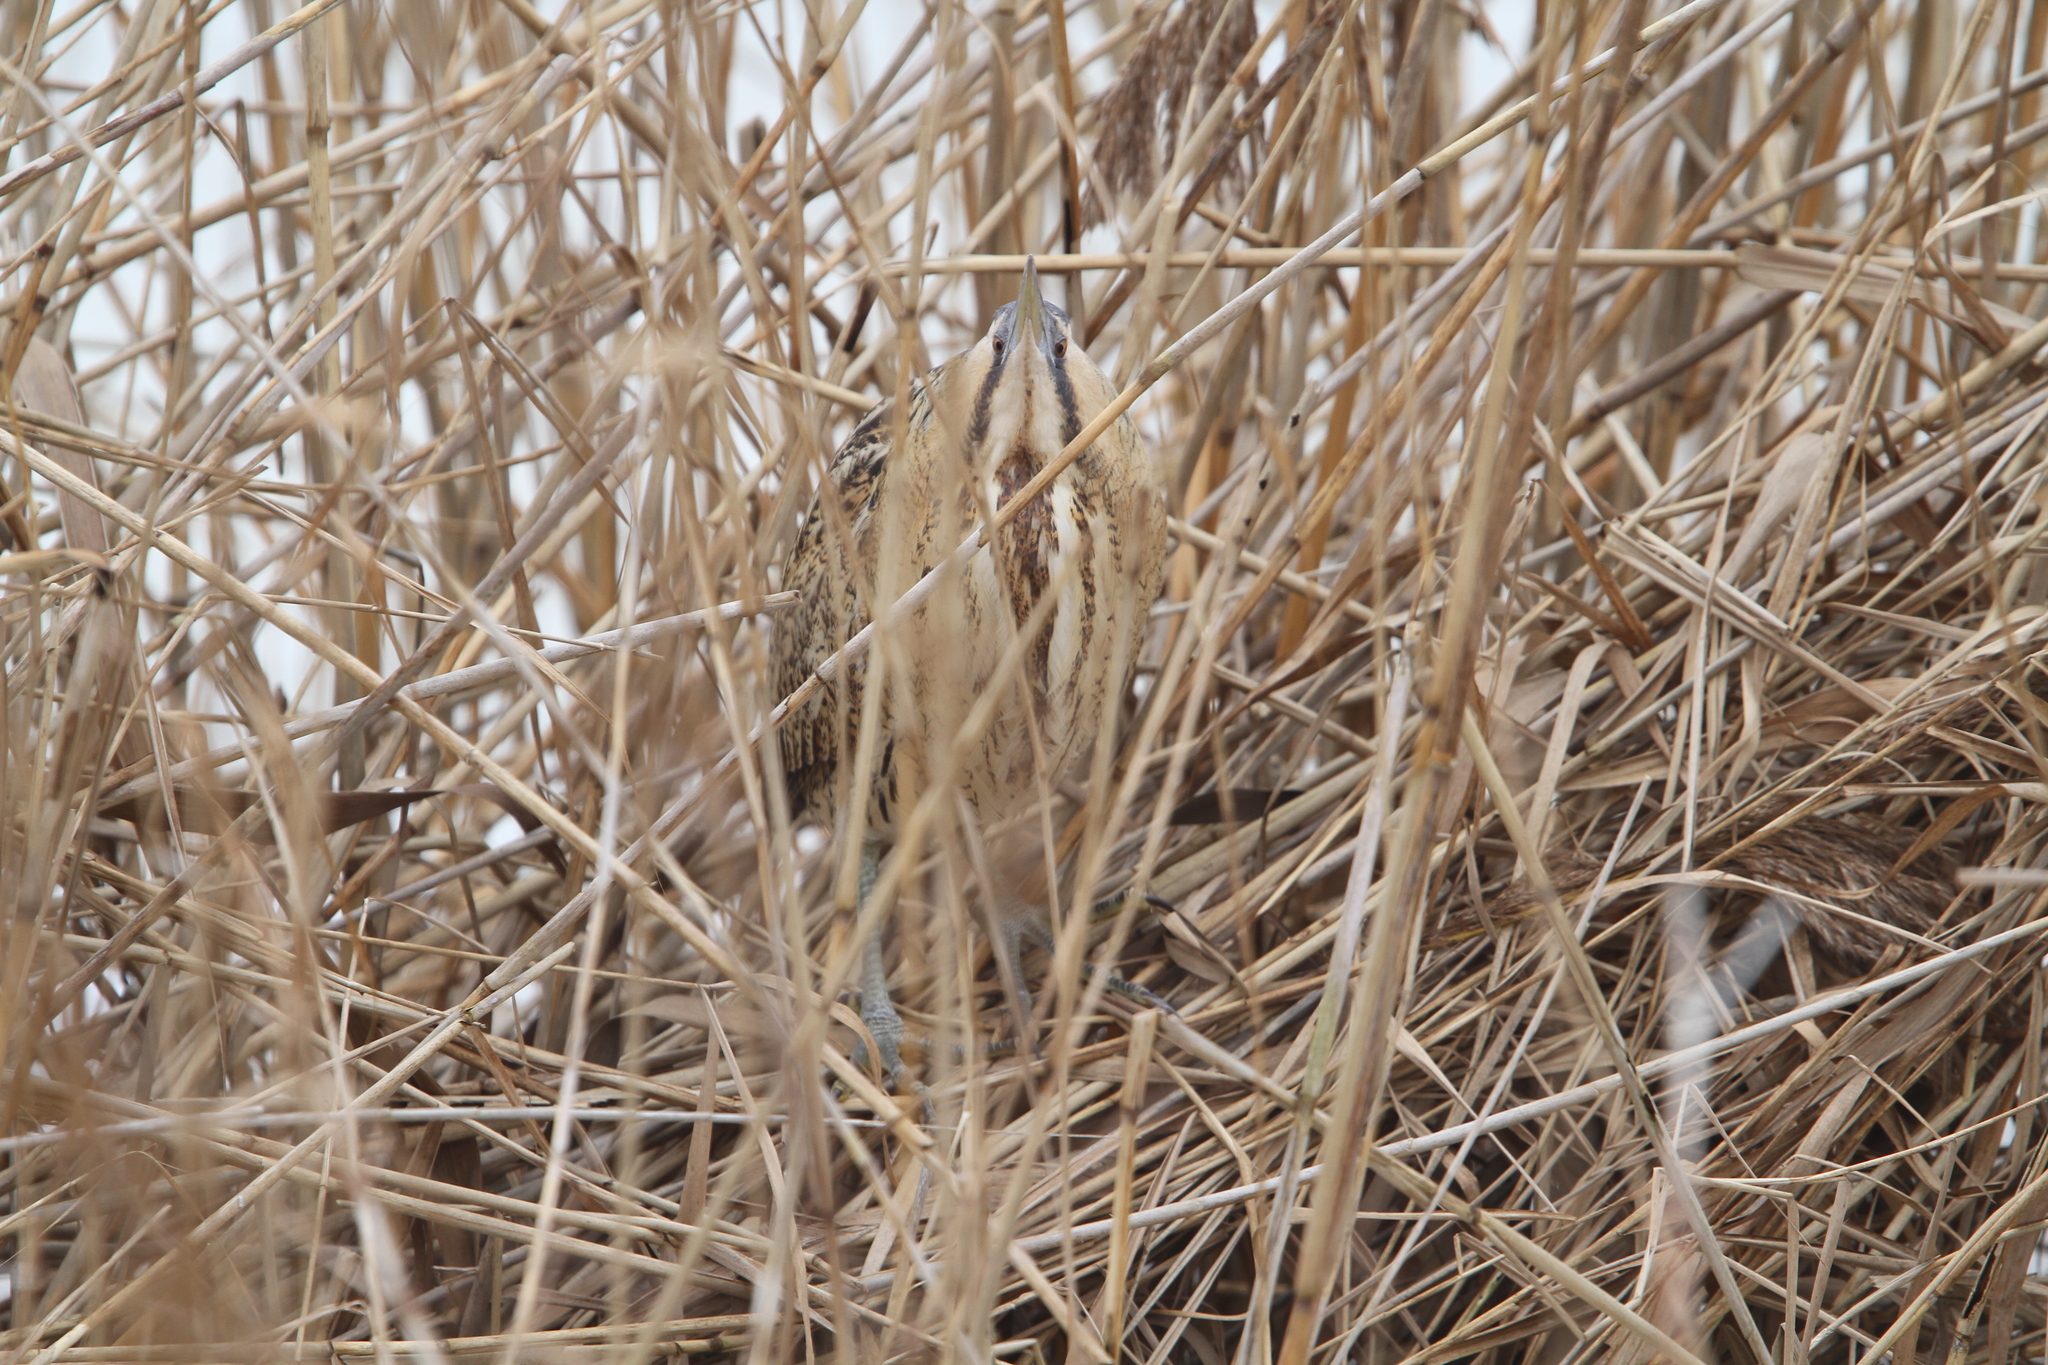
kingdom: Animalia
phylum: Chordata
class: Aves
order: Pelecaniformes
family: Ardeidae
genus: Botaurus
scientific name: Botaurus stellaris
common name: Eurasian bittern
